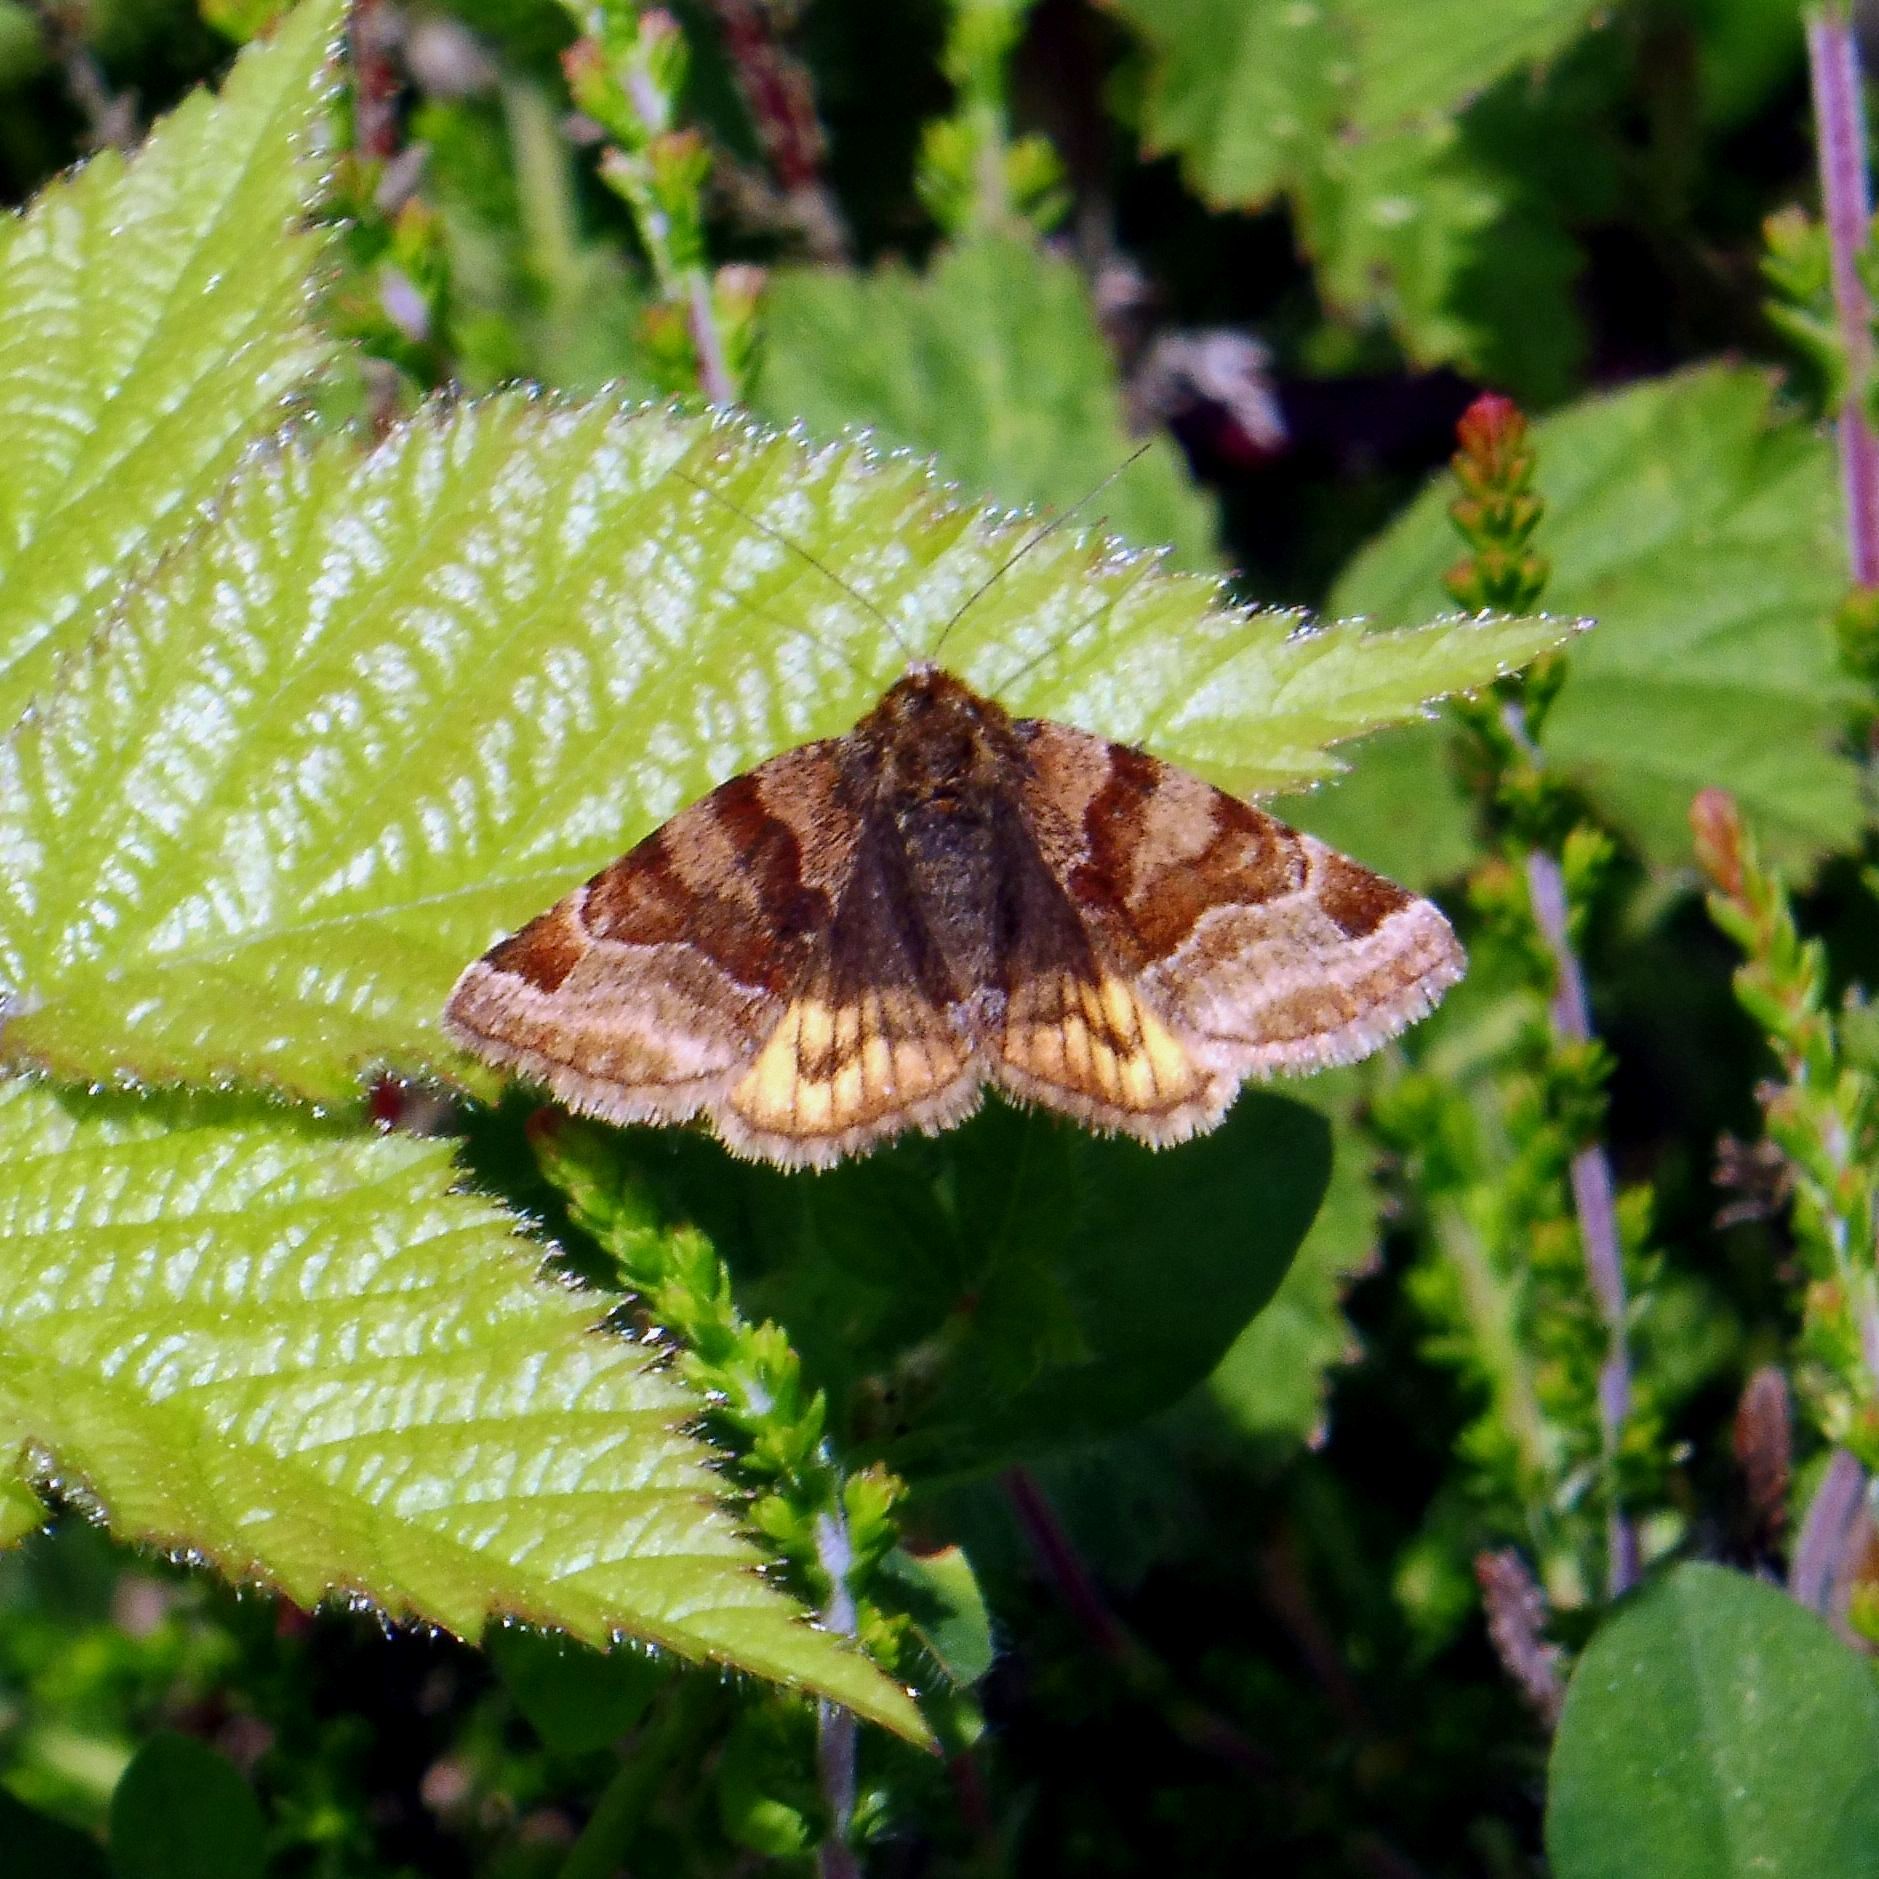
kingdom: Animalia
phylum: Arthropoda
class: Insecta
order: Lepidoptera
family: Erebidae
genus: Euclidia
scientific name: Euclidia glyphica
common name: Burnet companion
